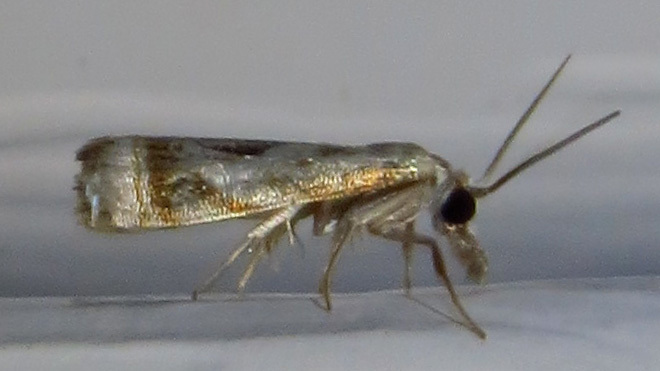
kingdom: Animalia
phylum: Arthropoda
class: Insecta
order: Lepidoptera
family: Crambidae
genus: Microcrambus
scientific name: Microcrambus elegans
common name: Elegant grass-veneer
